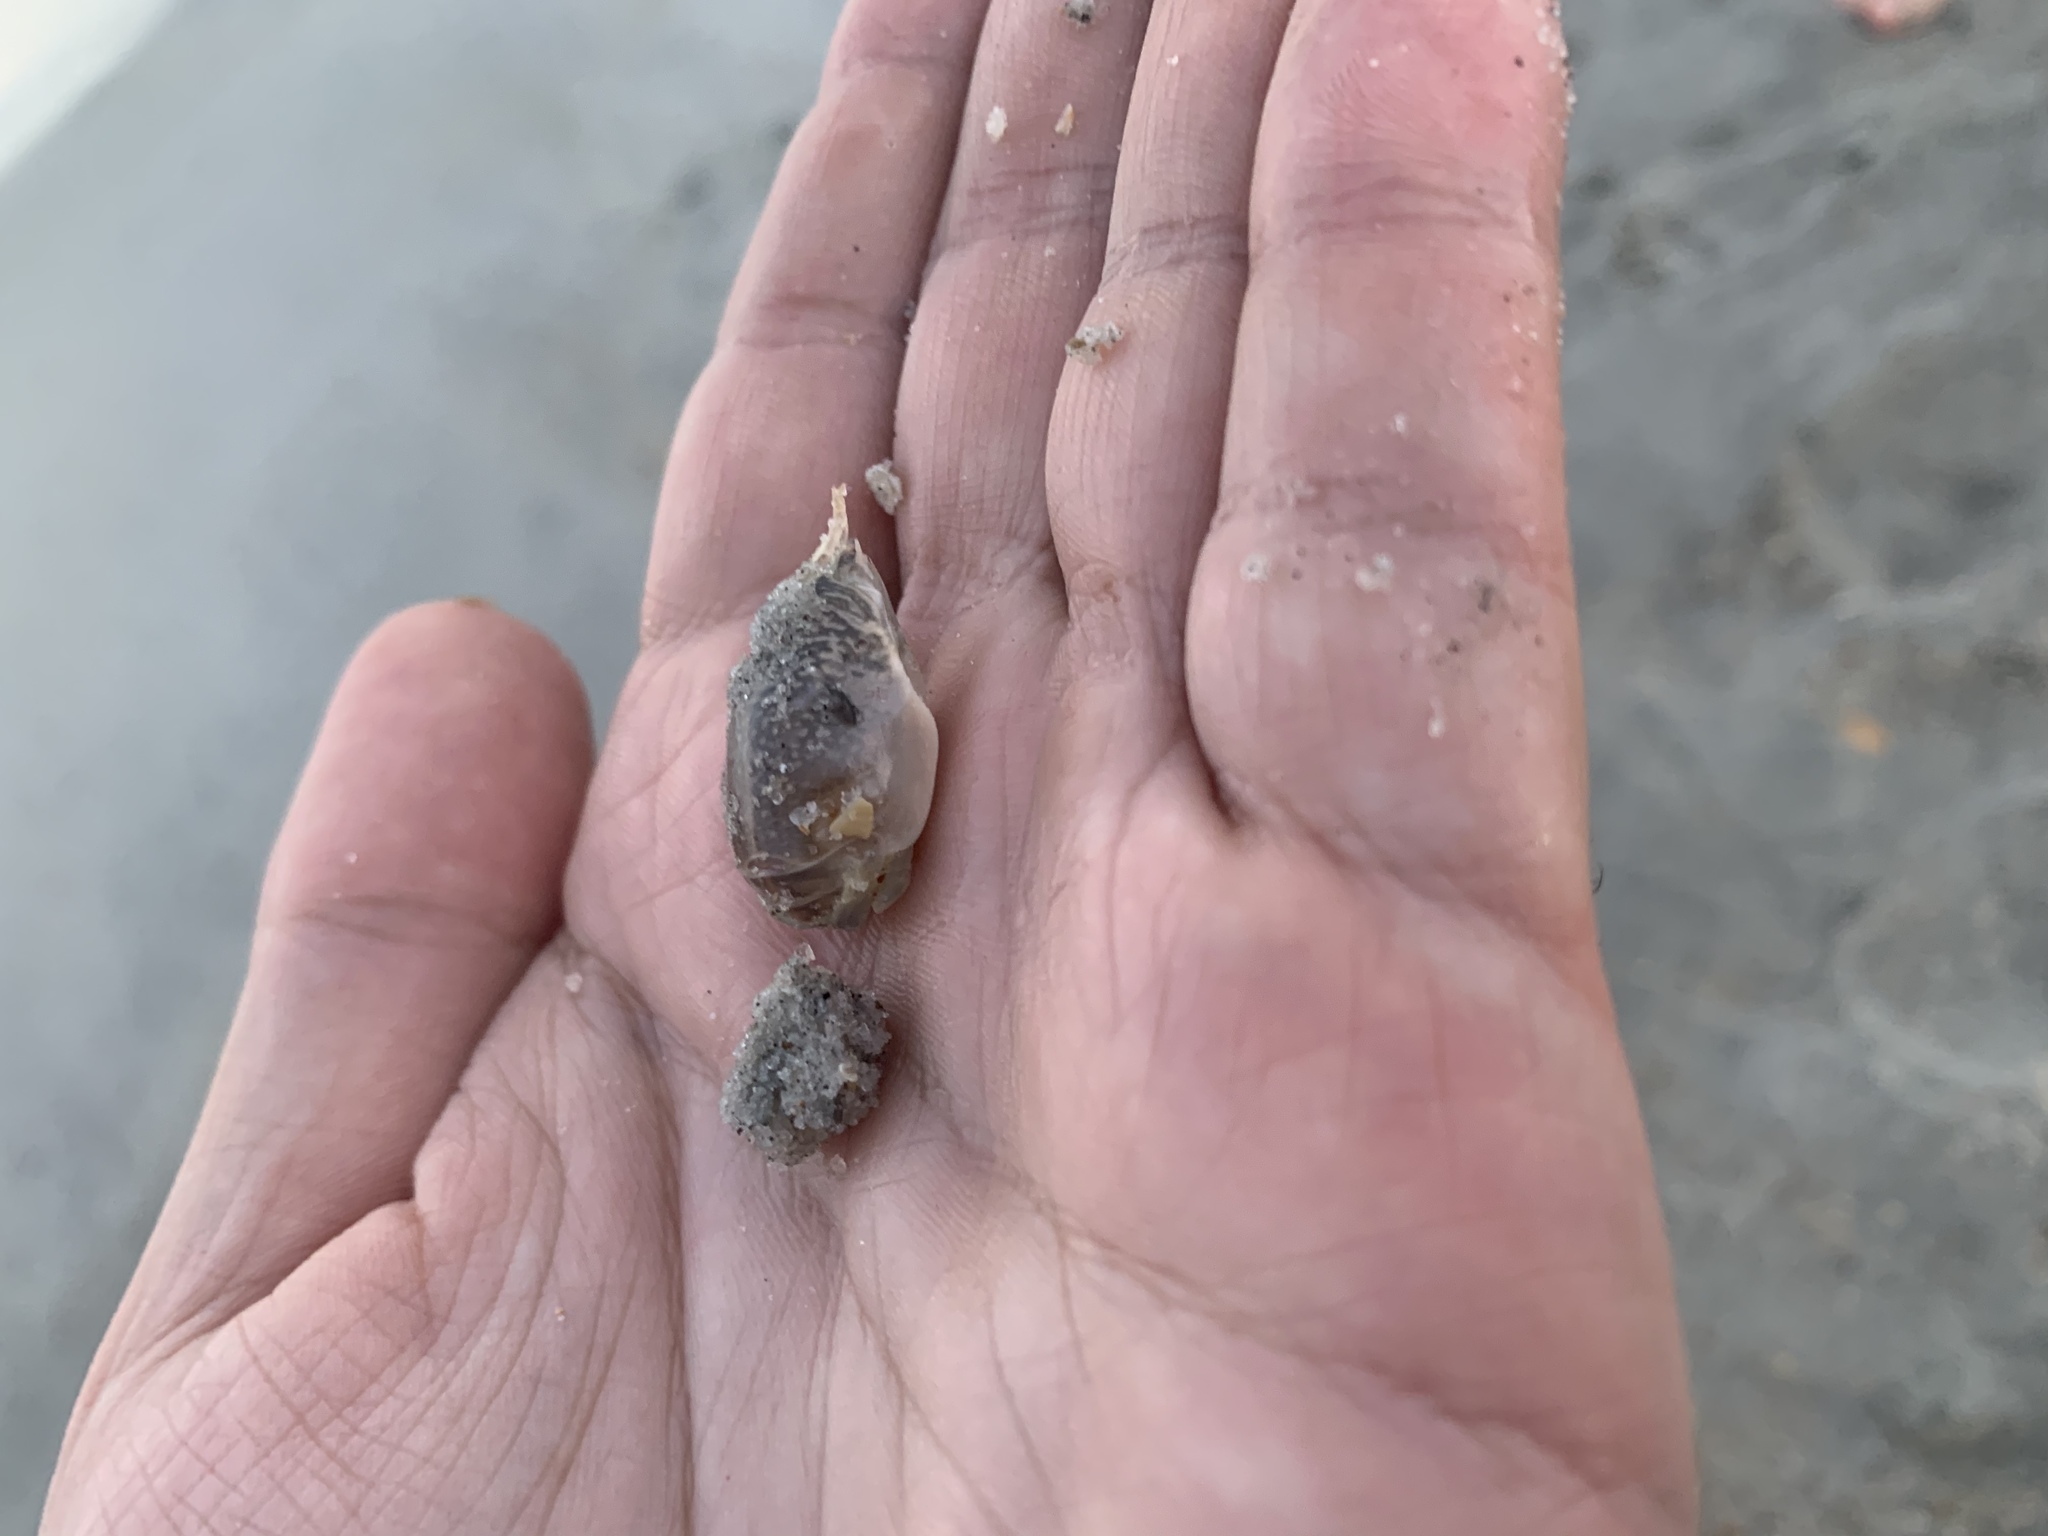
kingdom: Animalia
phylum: Arthropoda
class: Malacostraca
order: Decapoda
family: Hippidae
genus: Emerita
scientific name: Emerita talpoida
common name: Atlantic sand crab
